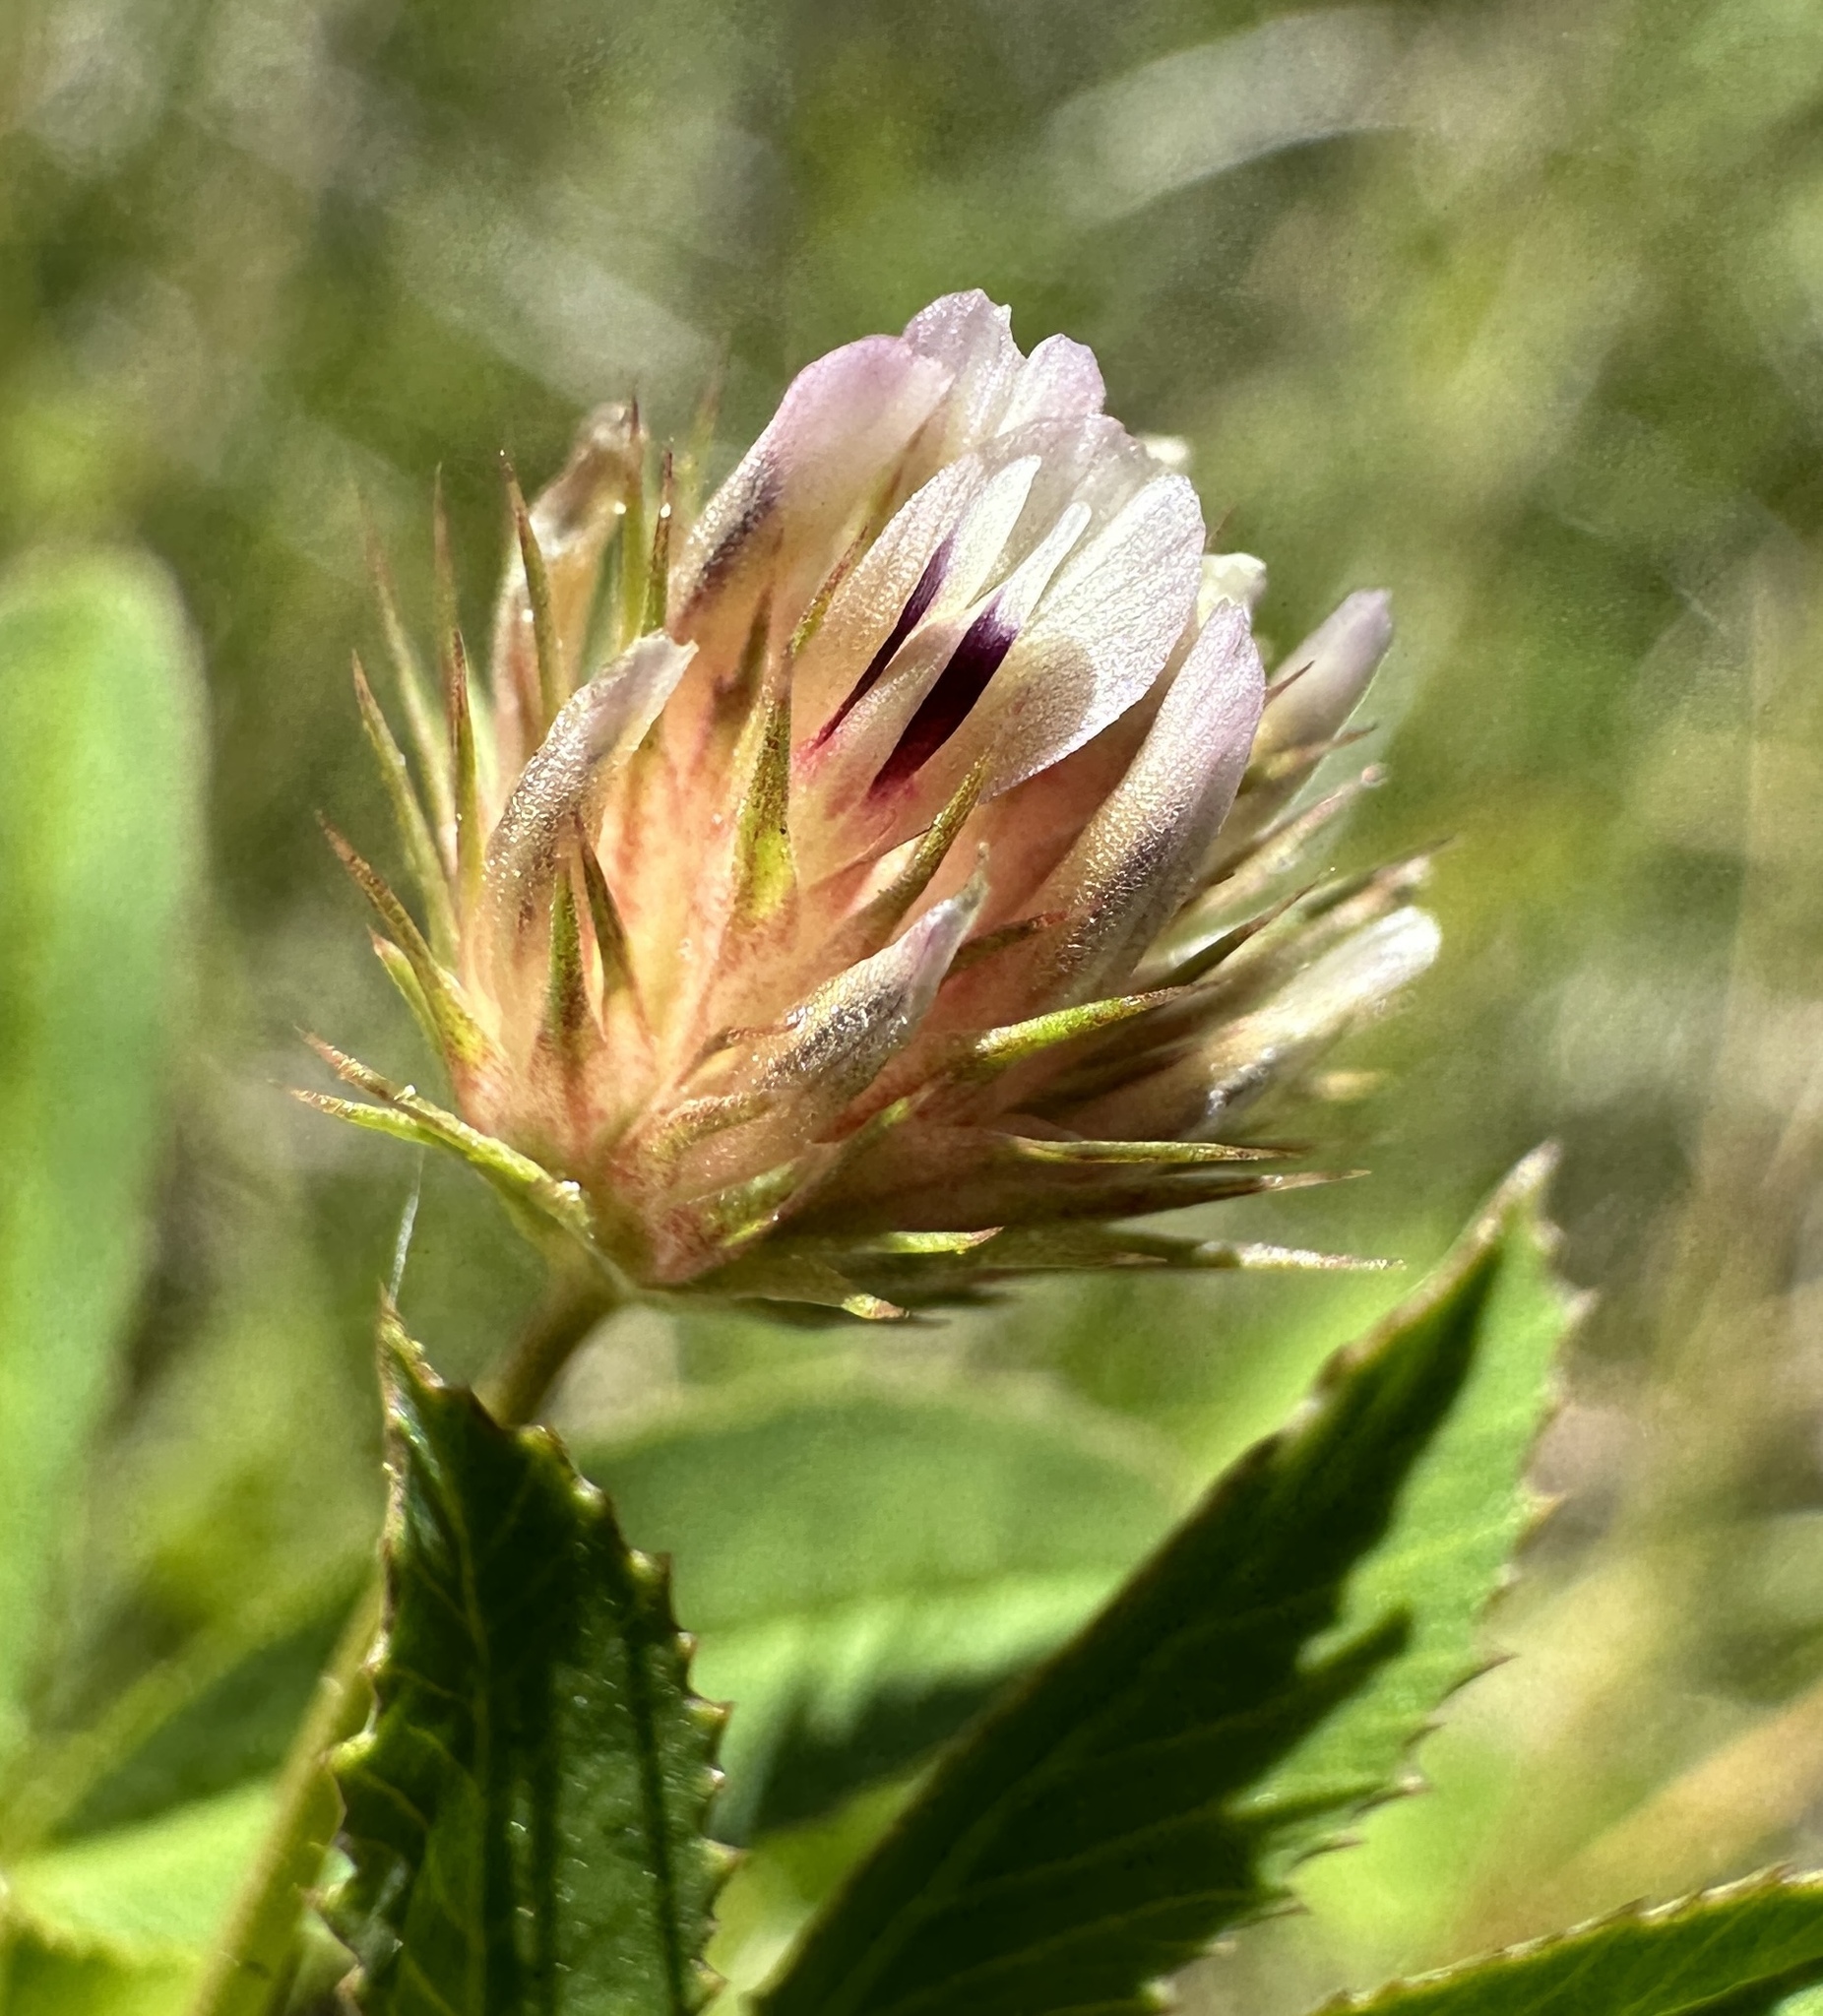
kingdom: Plantae
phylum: Tracheophyta
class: Magnoliopsida
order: Fabales
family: Fabaceae
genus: Trifolium
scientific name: Trifolium wormskioldii
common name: Springbank clover
